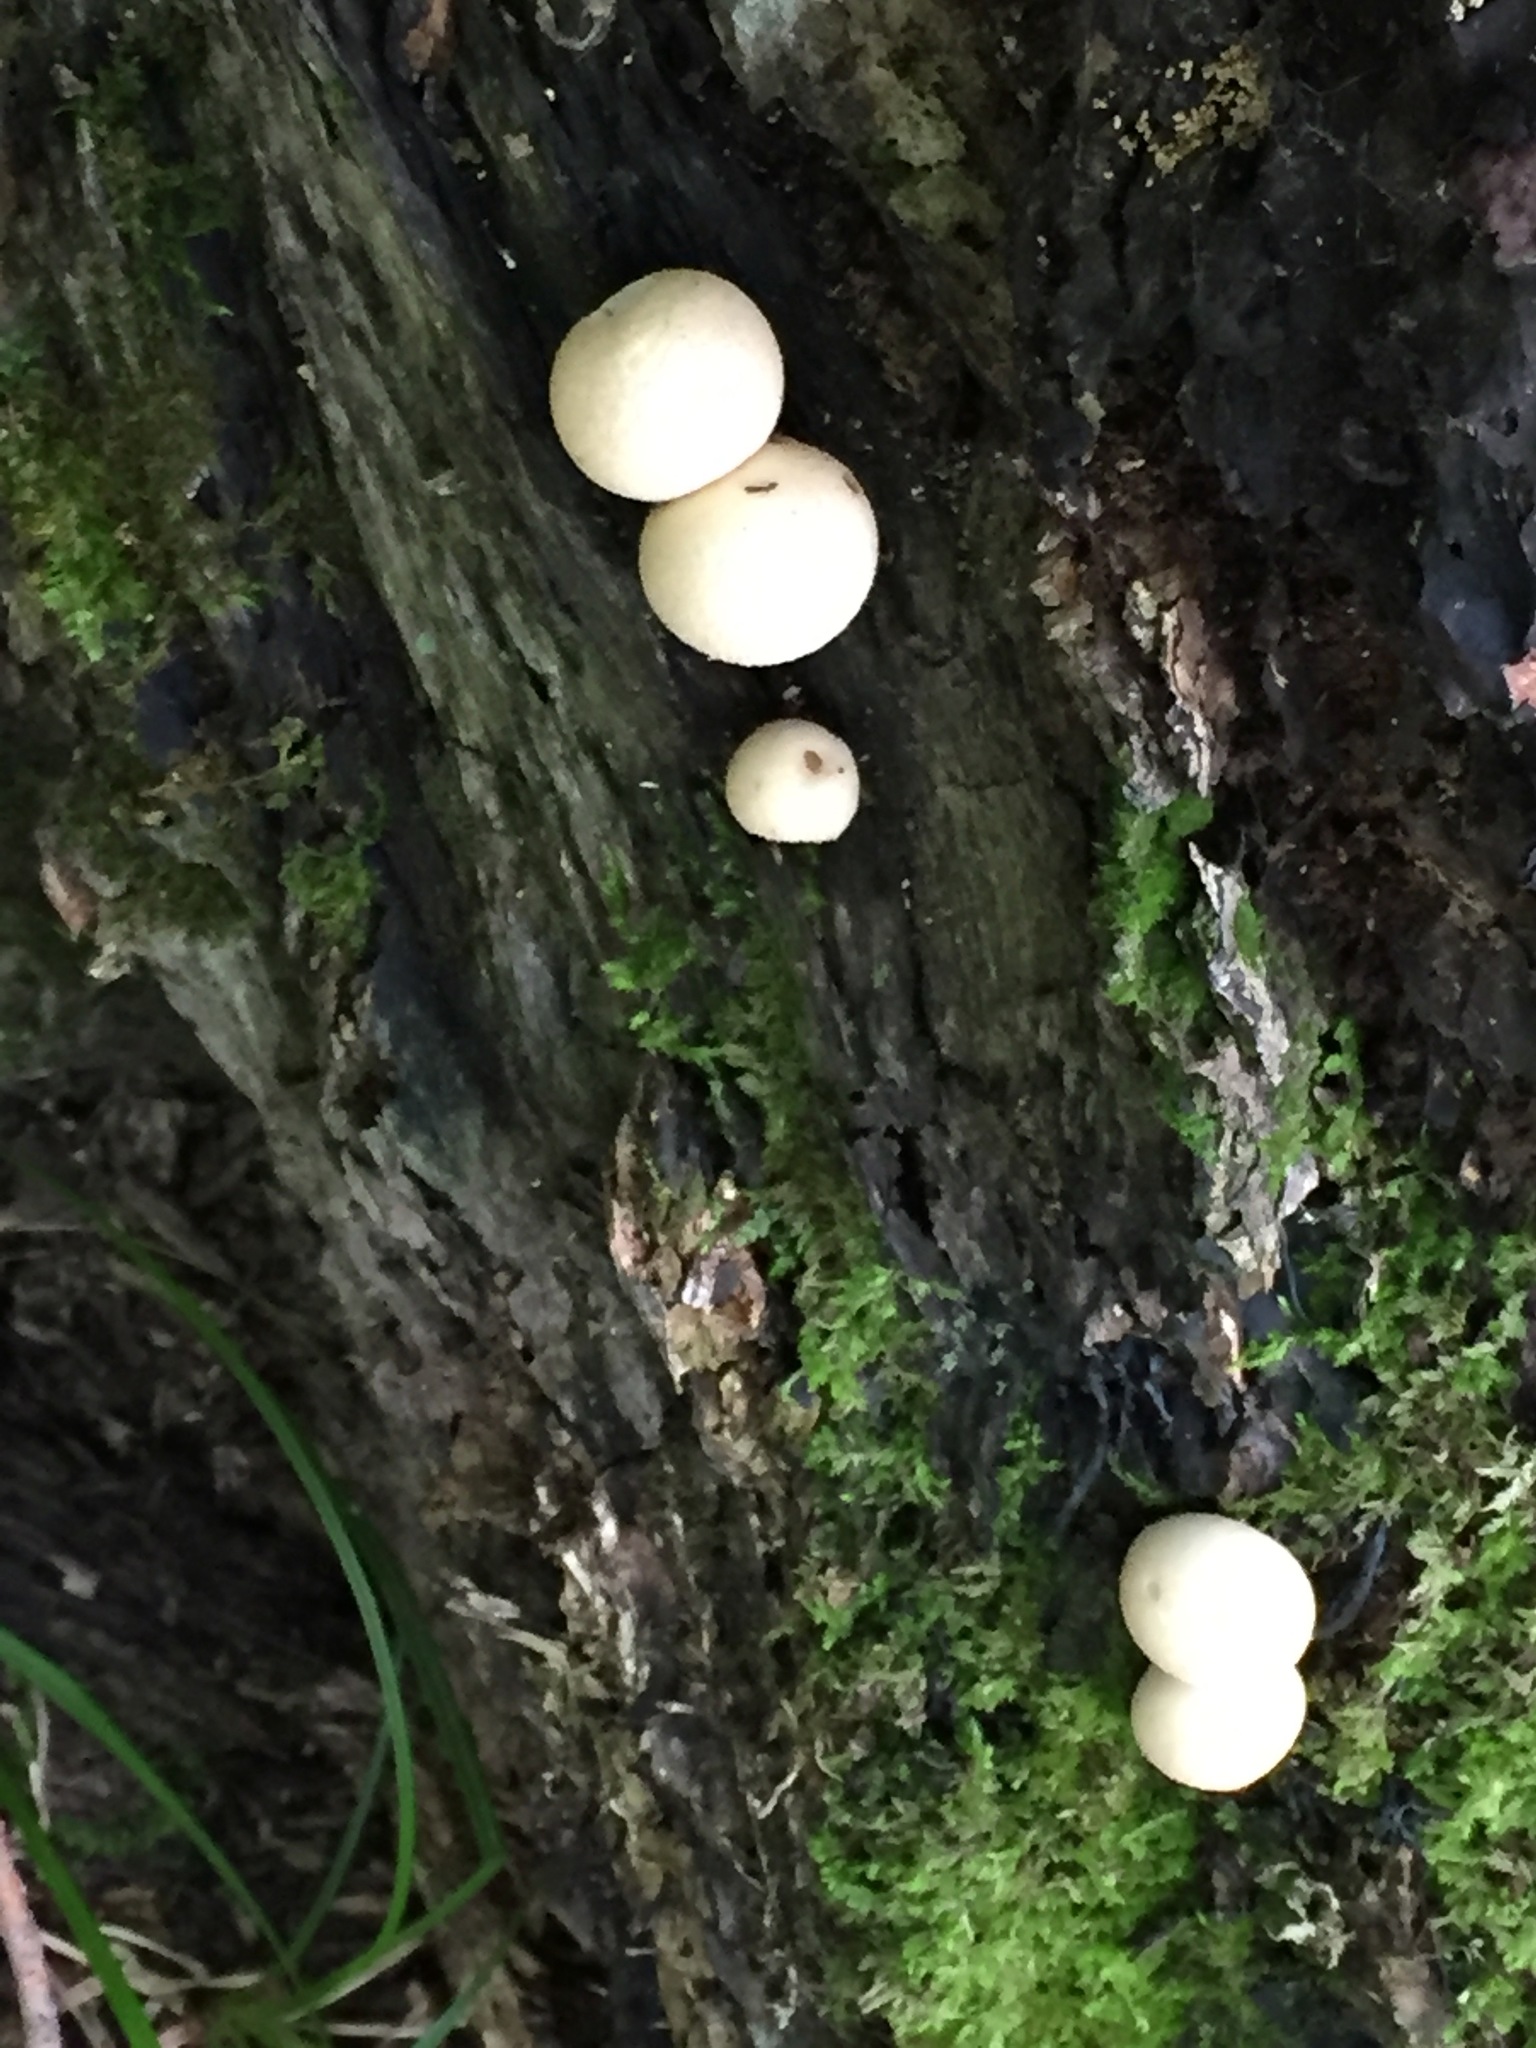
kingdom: Fungi
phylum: Basidiomycota
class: Agaricomycetes
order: Agaricales
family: Lycoperdaceae
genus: Apioperdon
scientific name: Apioperdon pyriforme
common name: Pear-shaped puffball
